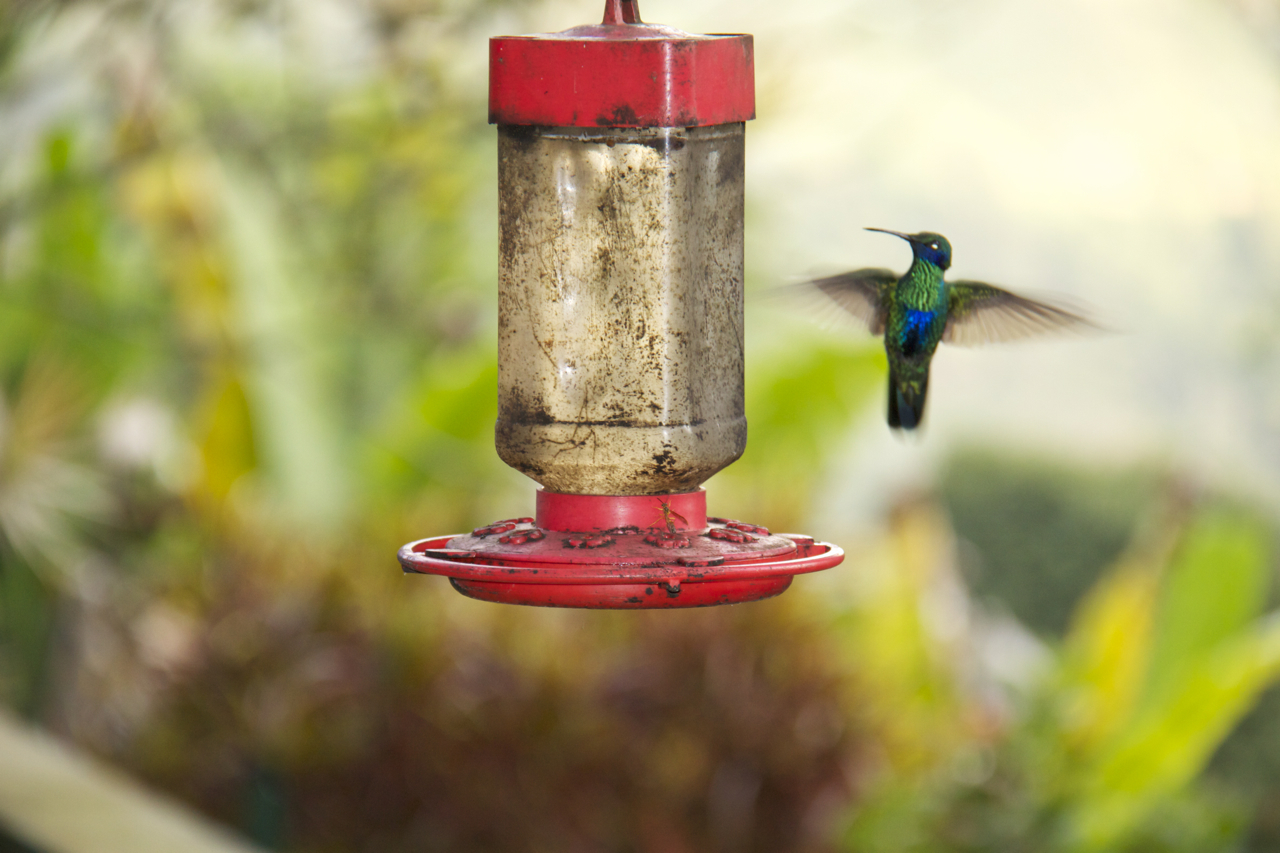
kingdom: Animalia
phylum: Chordata
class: Aves
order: Apodiformes
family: Trochilidae
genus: Colibri
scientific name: Colibri coruscans
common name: Sparkling violetear
